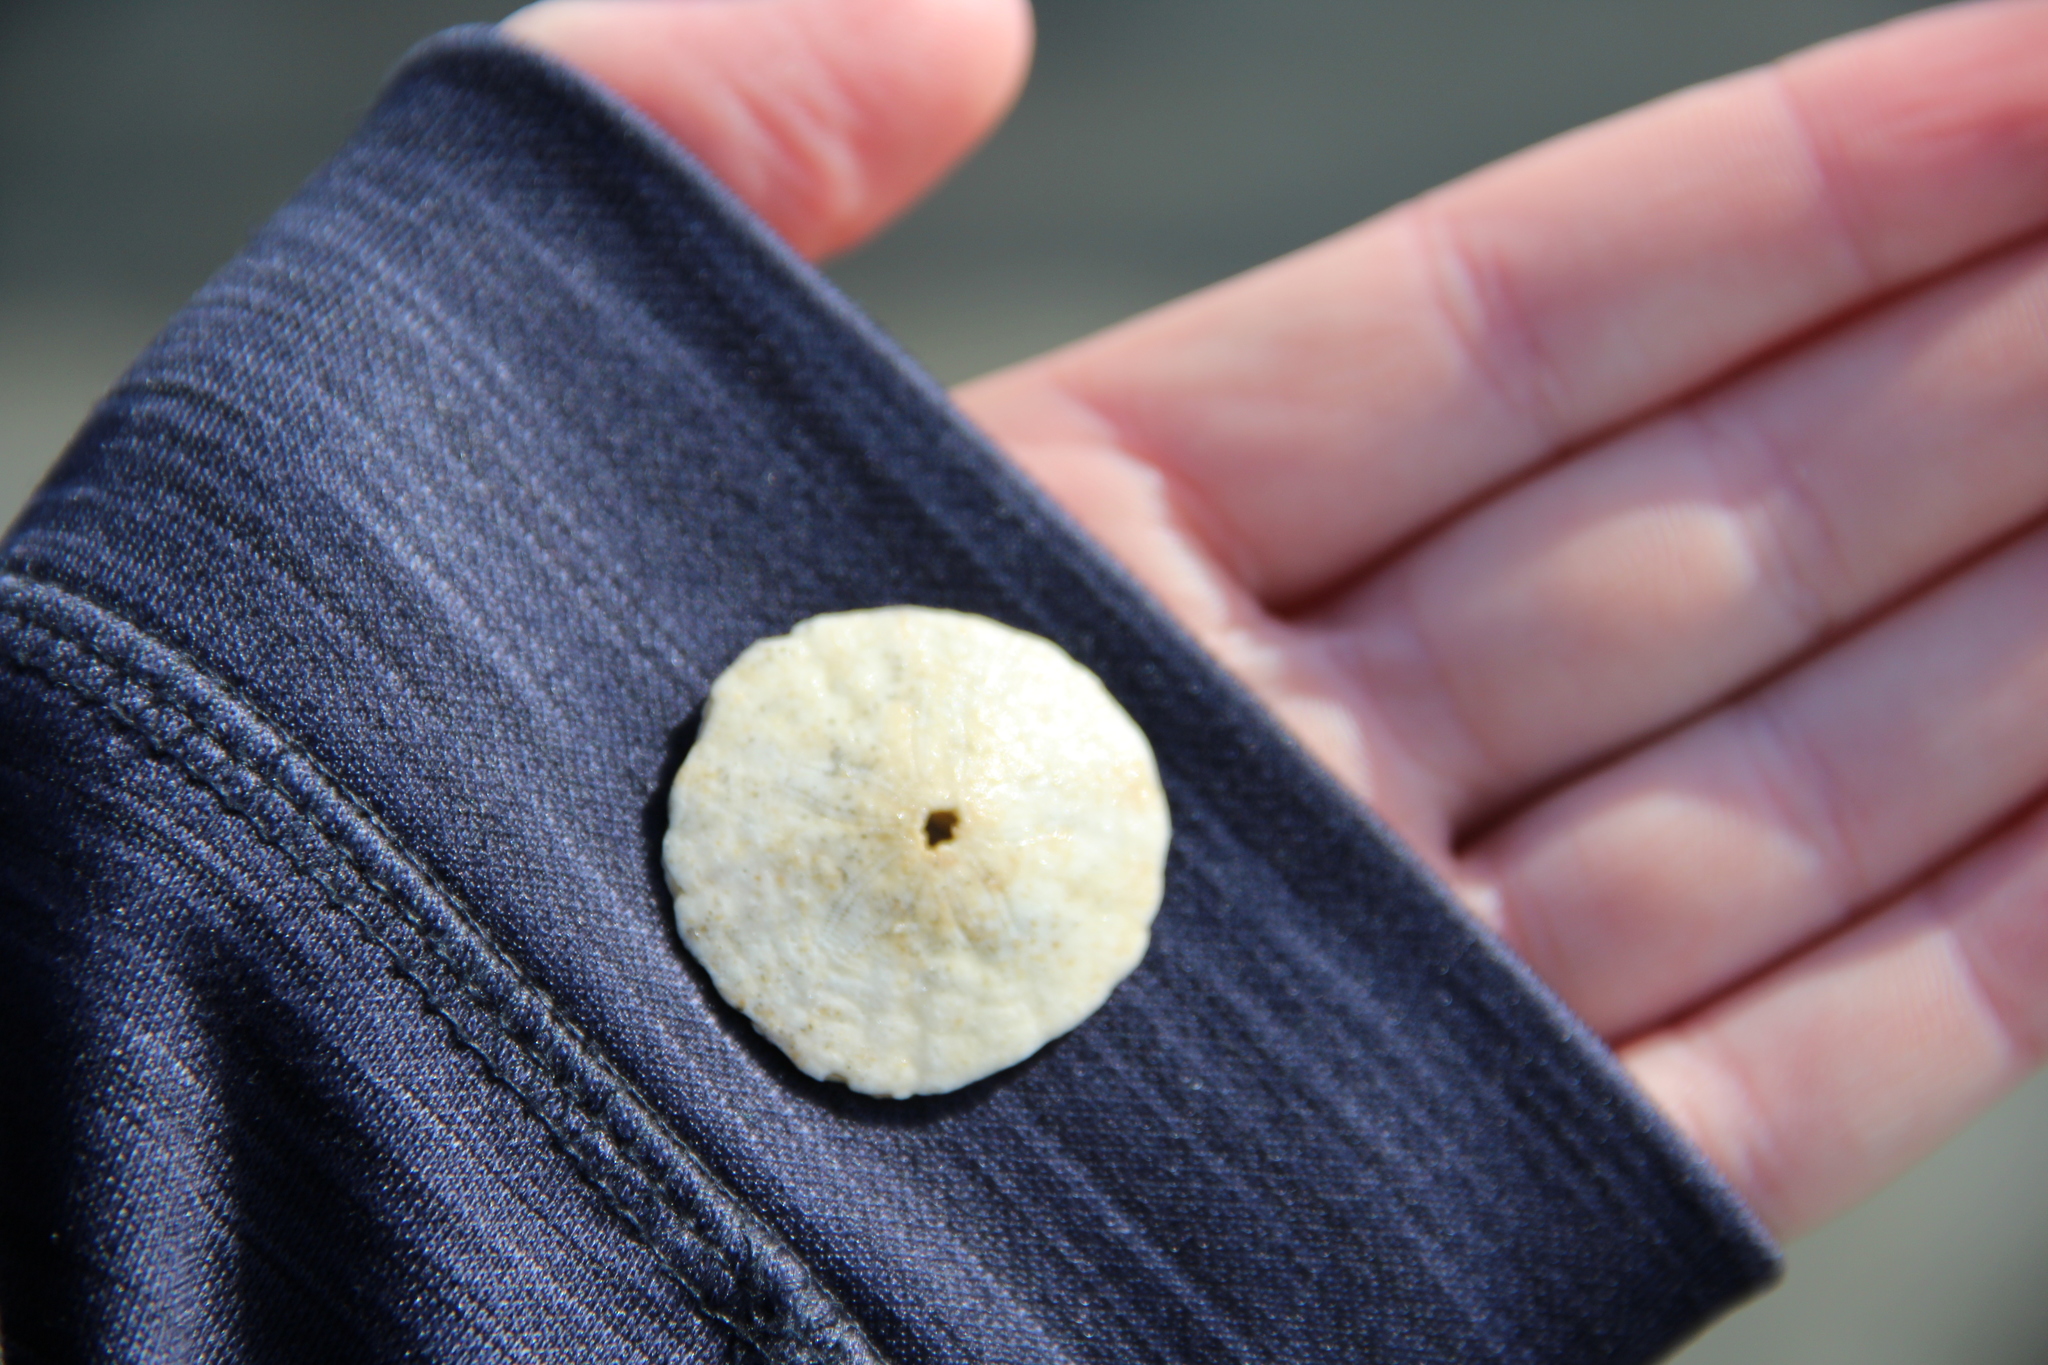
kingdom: Animalia
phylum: Echinodermata
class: Echinoidea
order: Echinolampadacea
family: Echinarachniidae
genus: Echinarachnius
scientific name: Echinarachnius parma
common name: Common sand dollar
